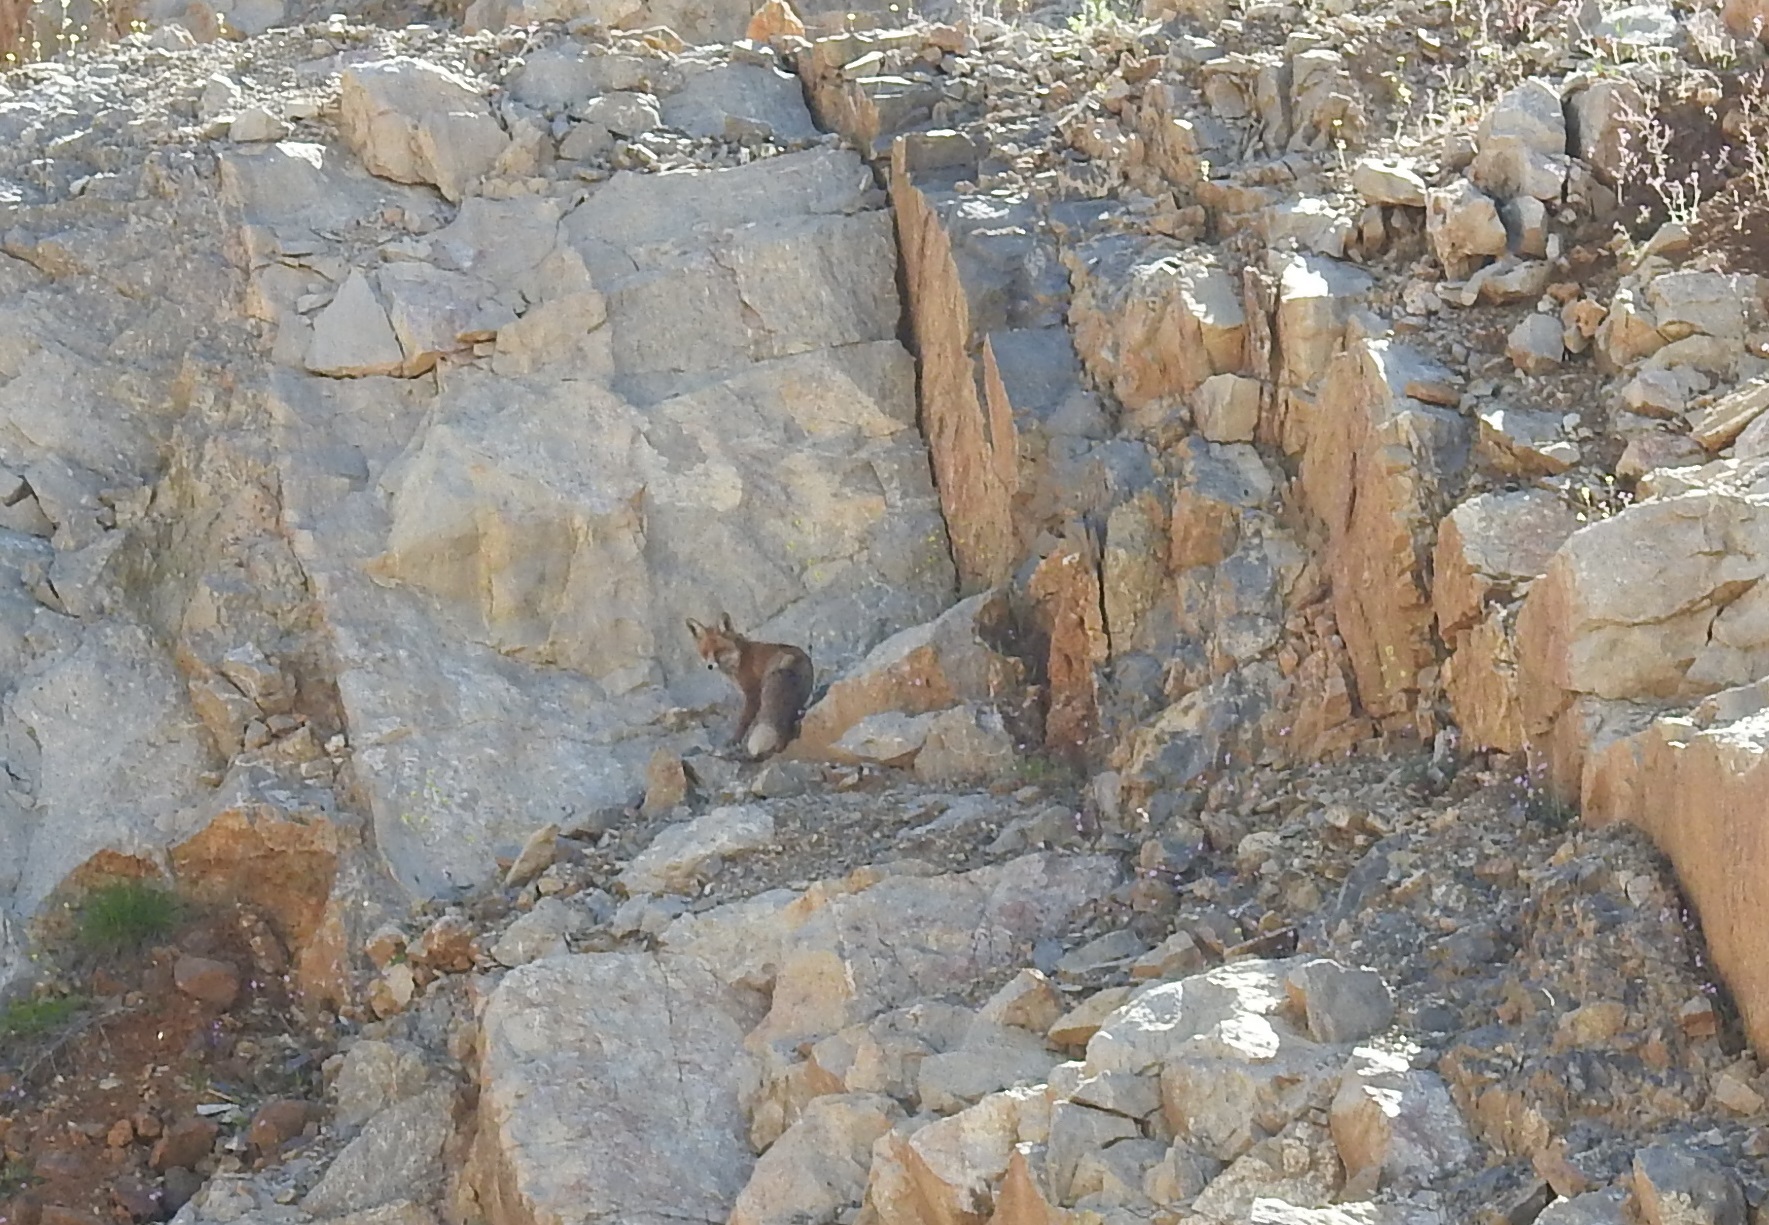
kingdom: Animalia
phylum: Chordata
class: Mammalia
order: Carnivora
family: Canidae
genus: Vulpes
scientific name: Vulpes vulpes
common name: Red fox
